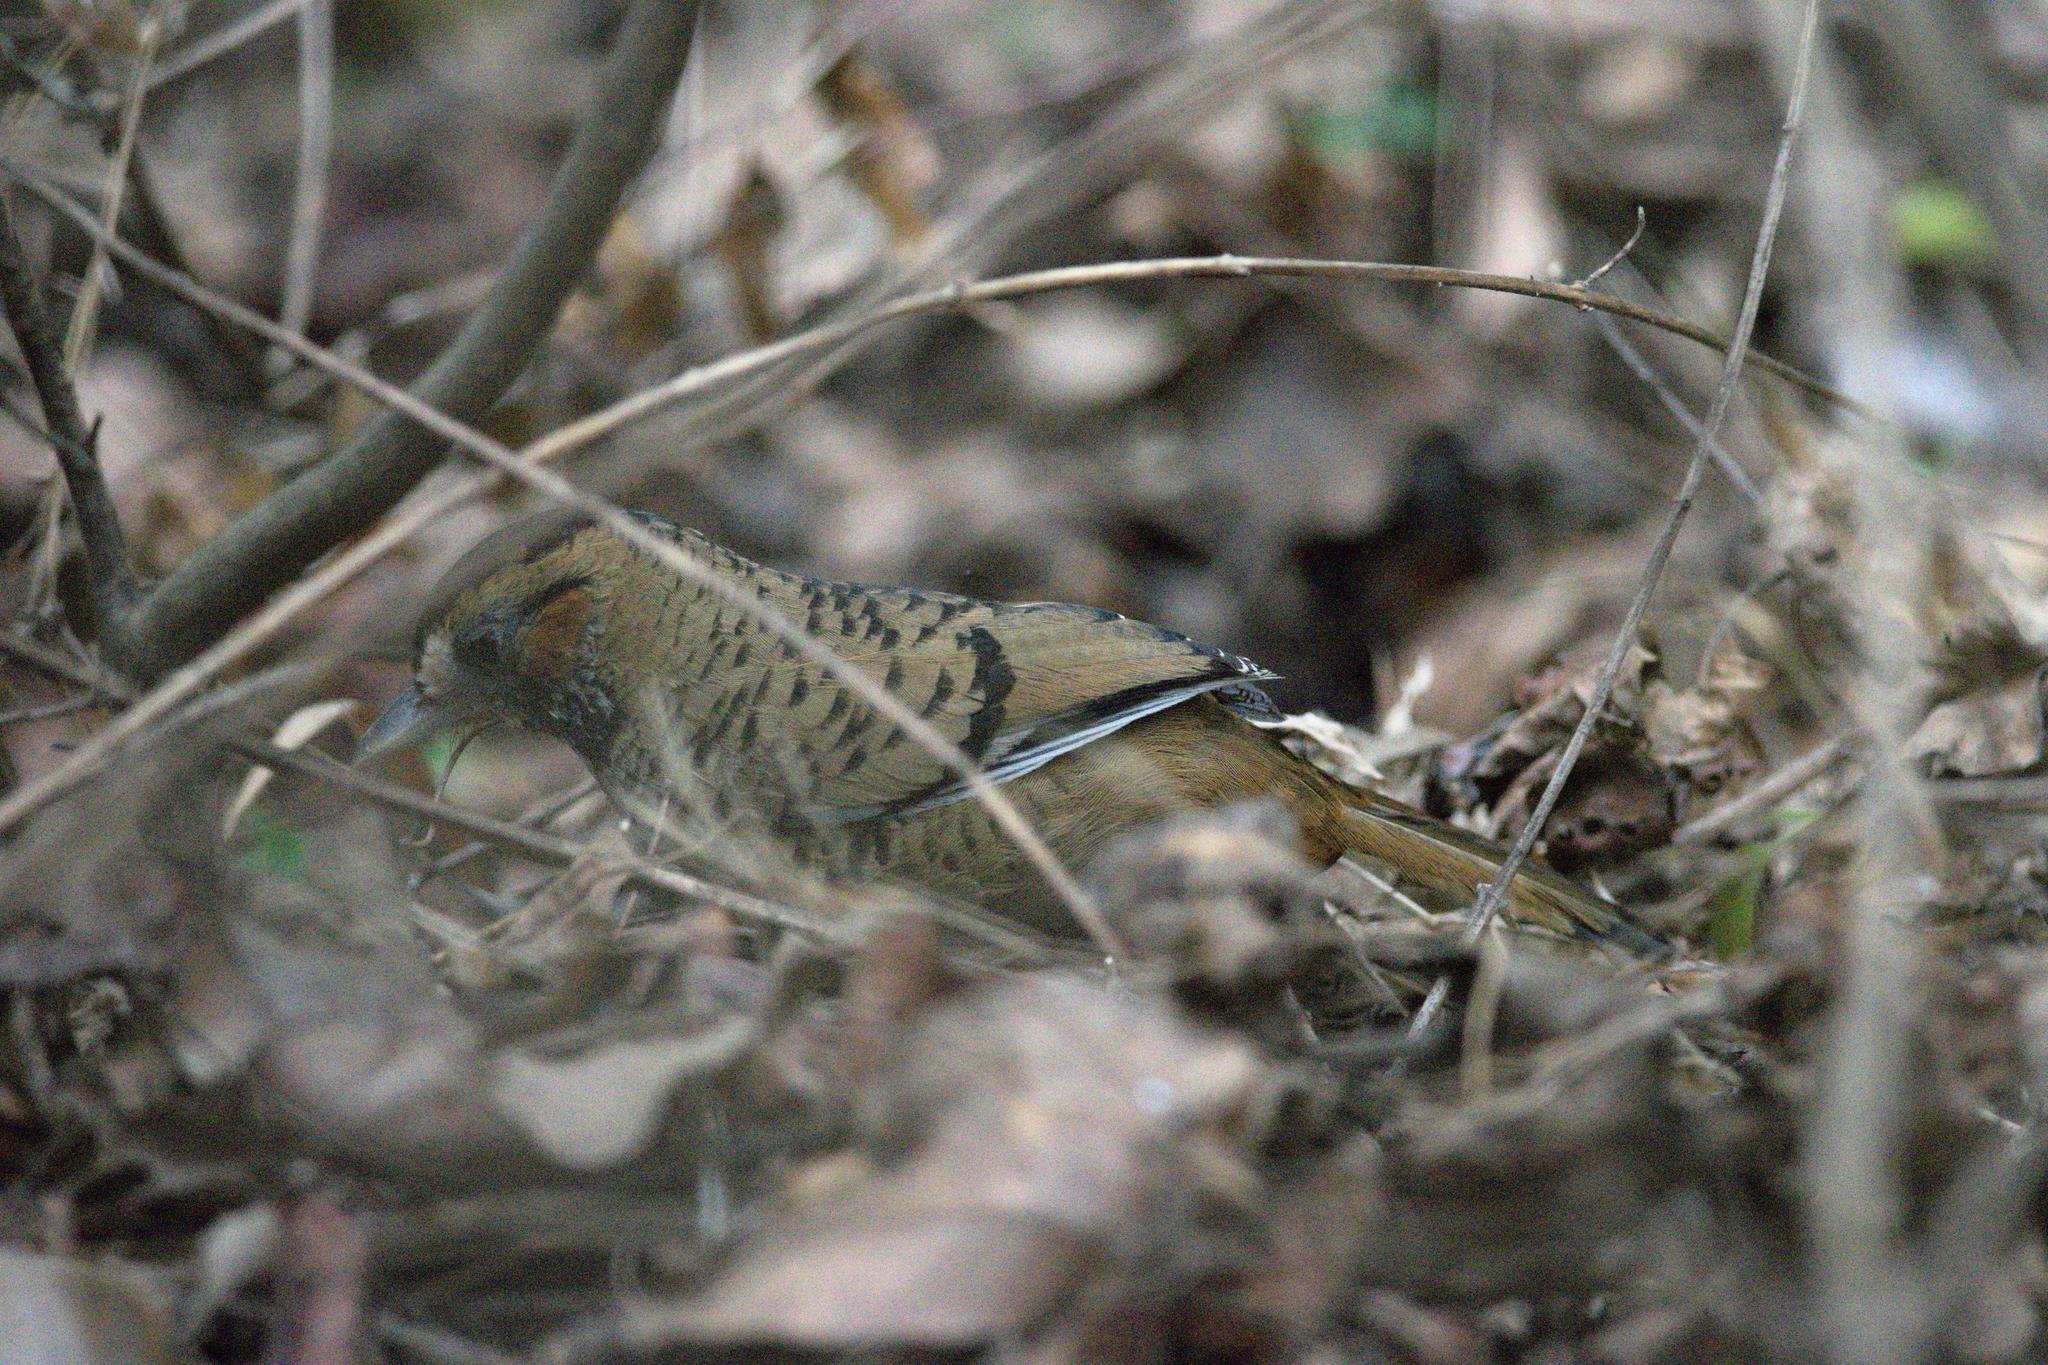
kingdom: Animalia
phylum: Chordata
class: Aves
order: Passeriformes
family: Leiothrichidae
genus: Garrulax
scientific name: Garrulax rufogularis
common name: Rufous-chinned laughingthrush
